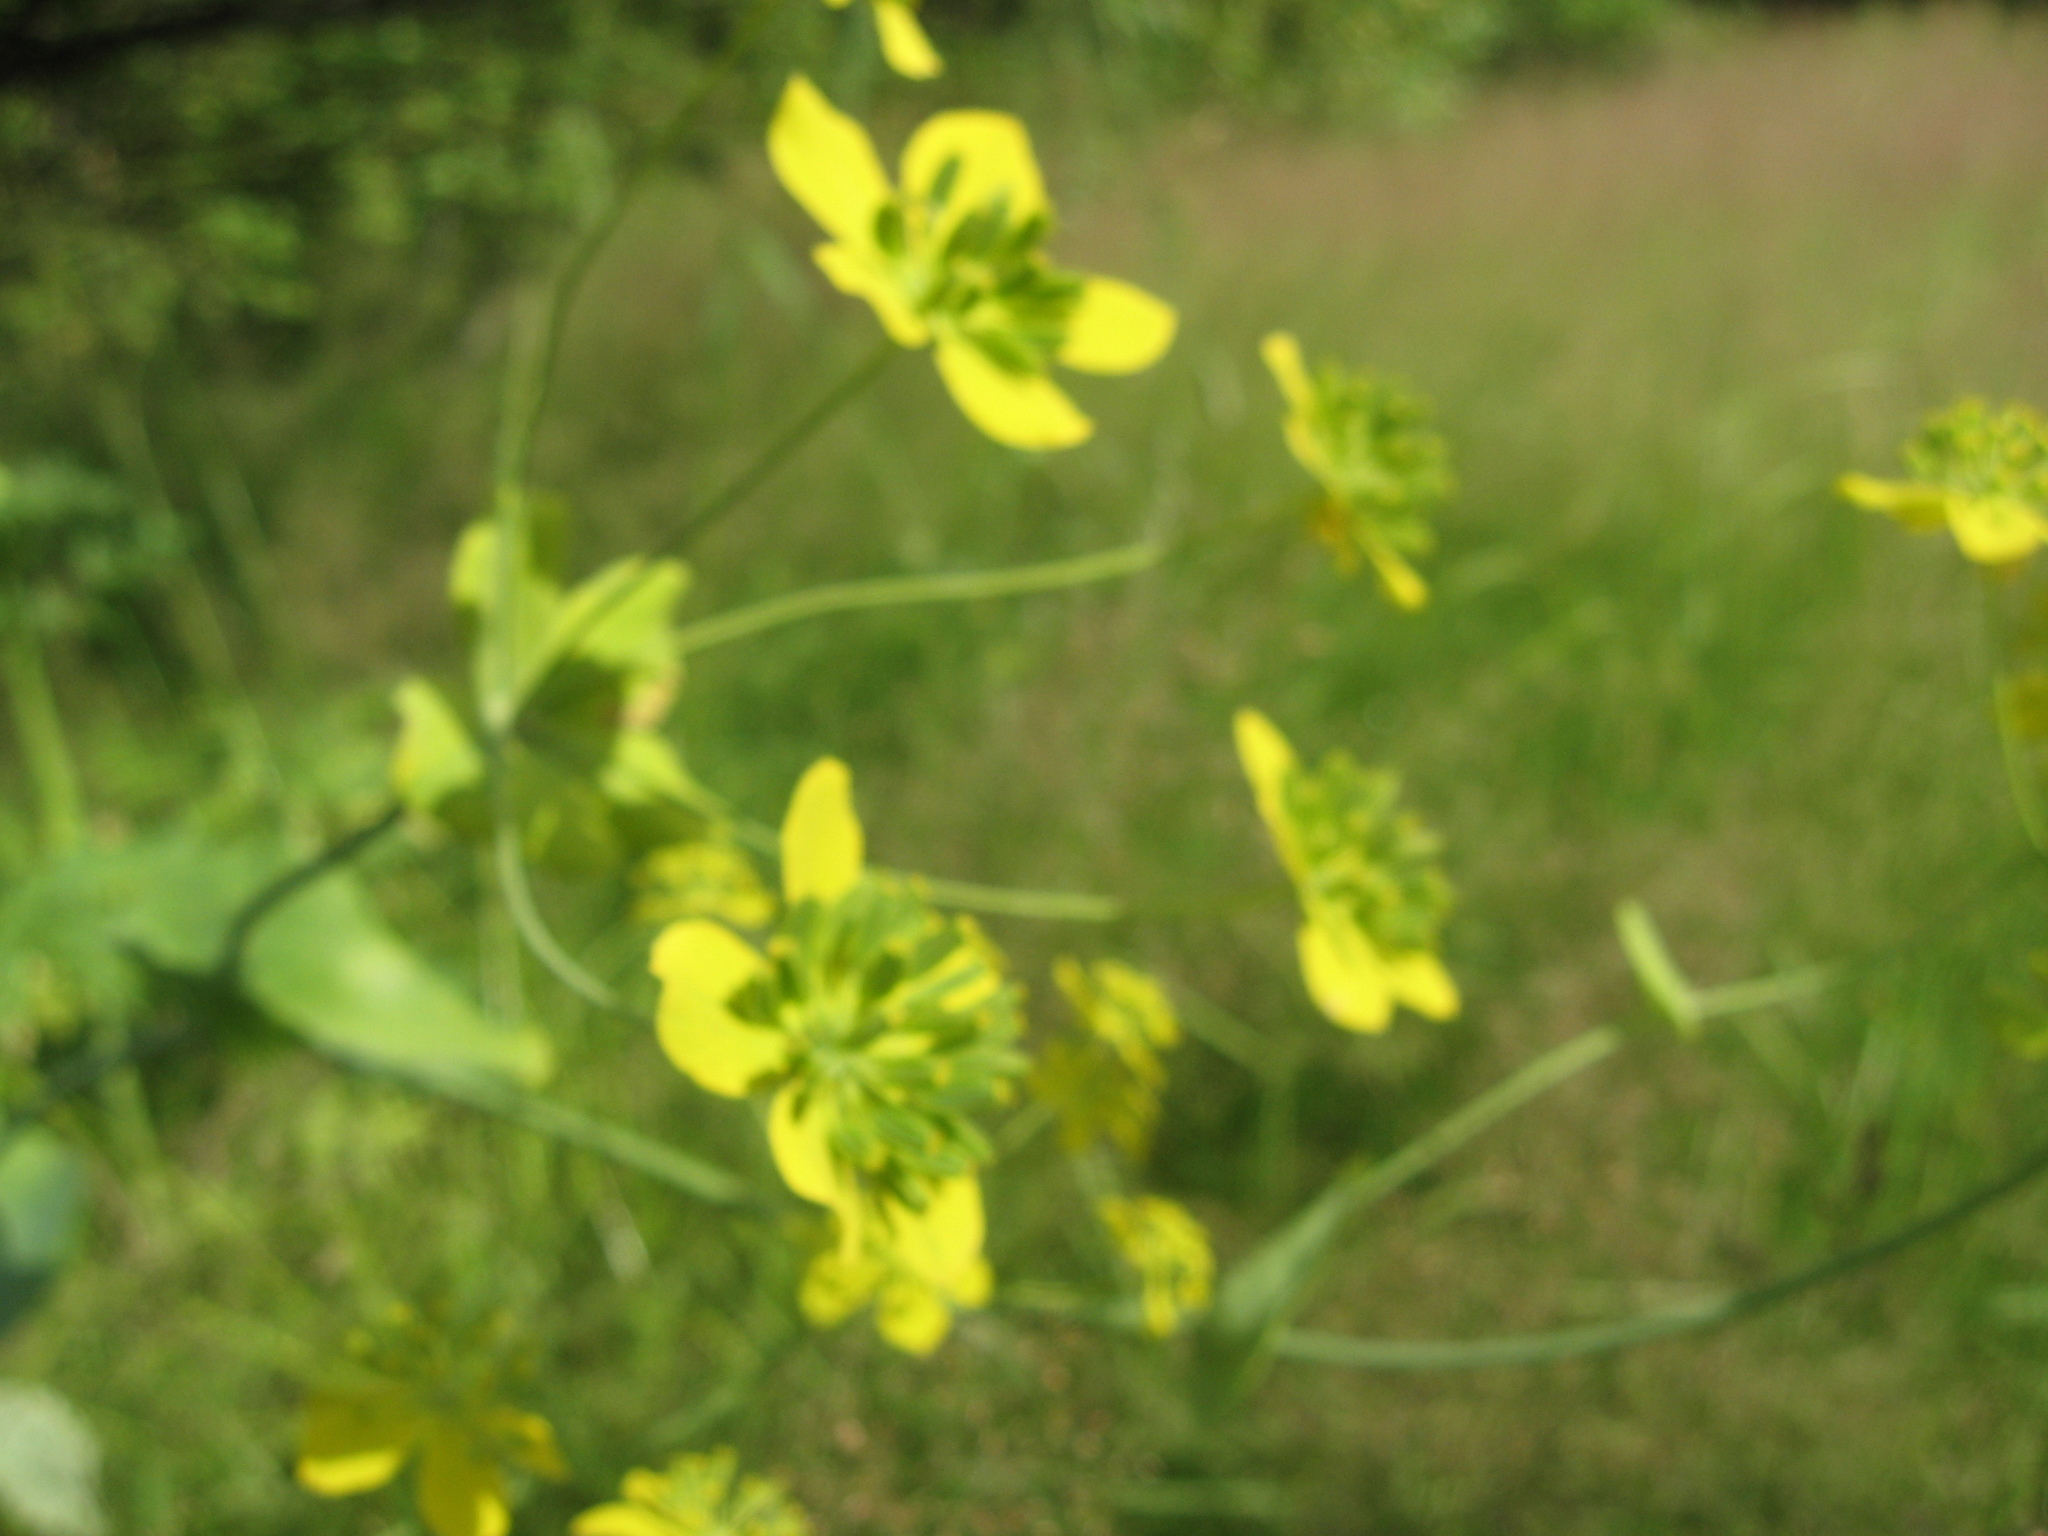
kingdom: Plantae
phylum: Tracheophyta
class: Magnoliopsida
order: Apiales
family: Apiaceae
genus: Bupleurum
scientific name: Bupleurum aureum
